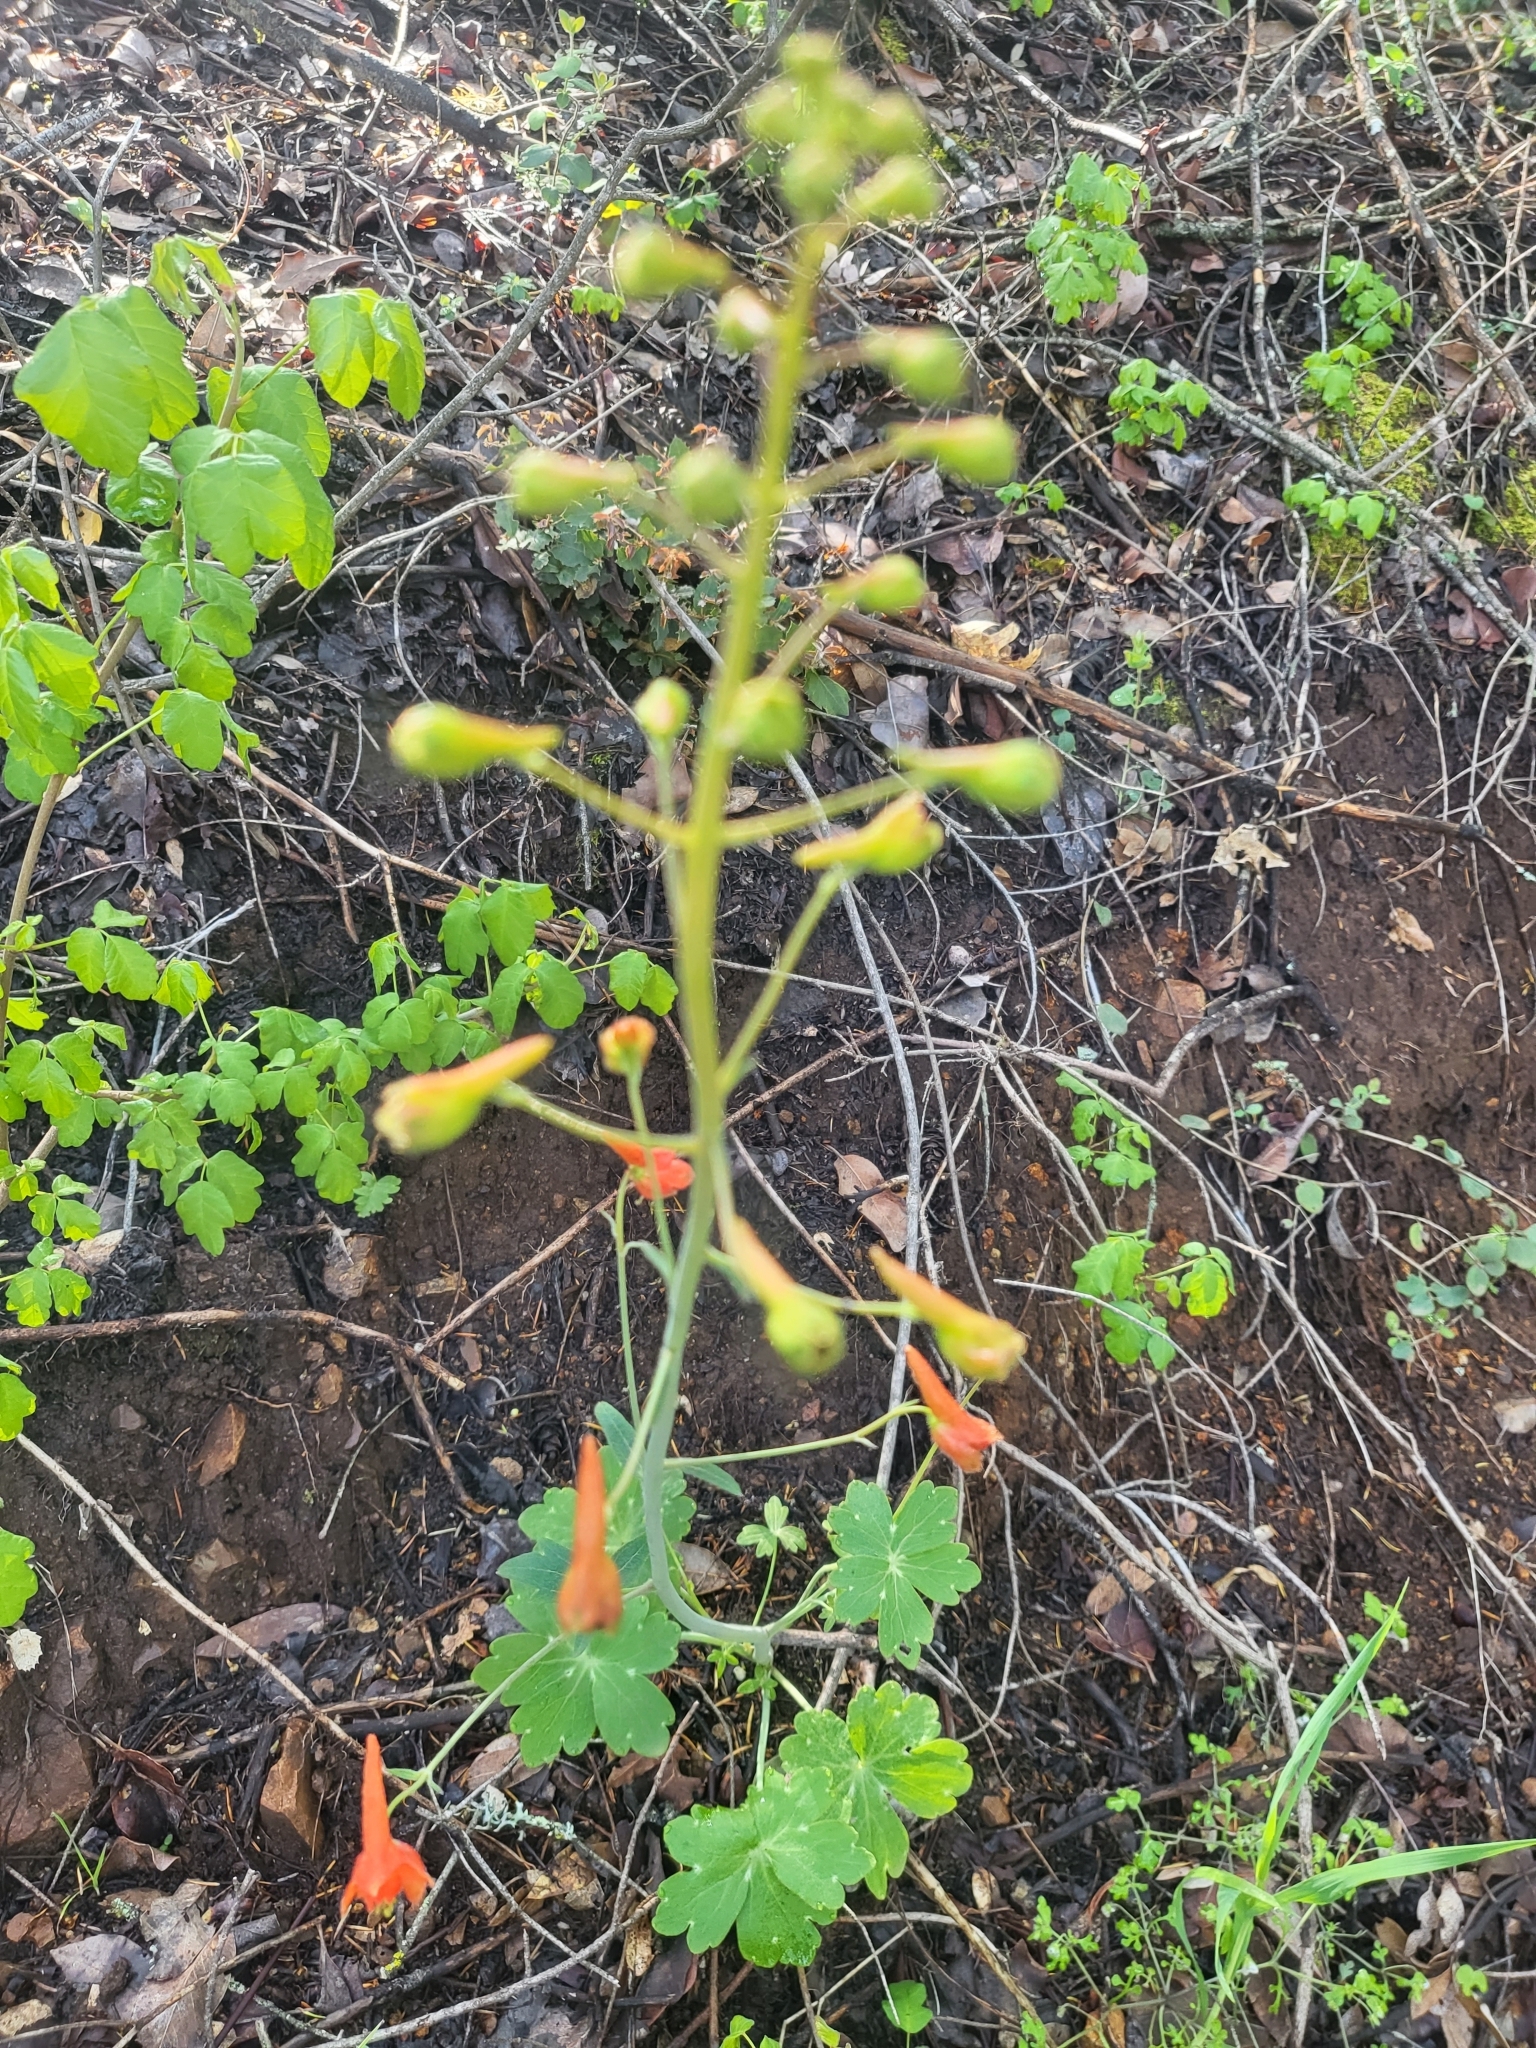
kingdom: Plantae
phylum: Tracheophyta
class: Magnoliopsida
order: Ranunculales
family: Ranunculaceae
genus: Delphinium
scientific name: Delphinium nudicaule
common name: Red larkspur
